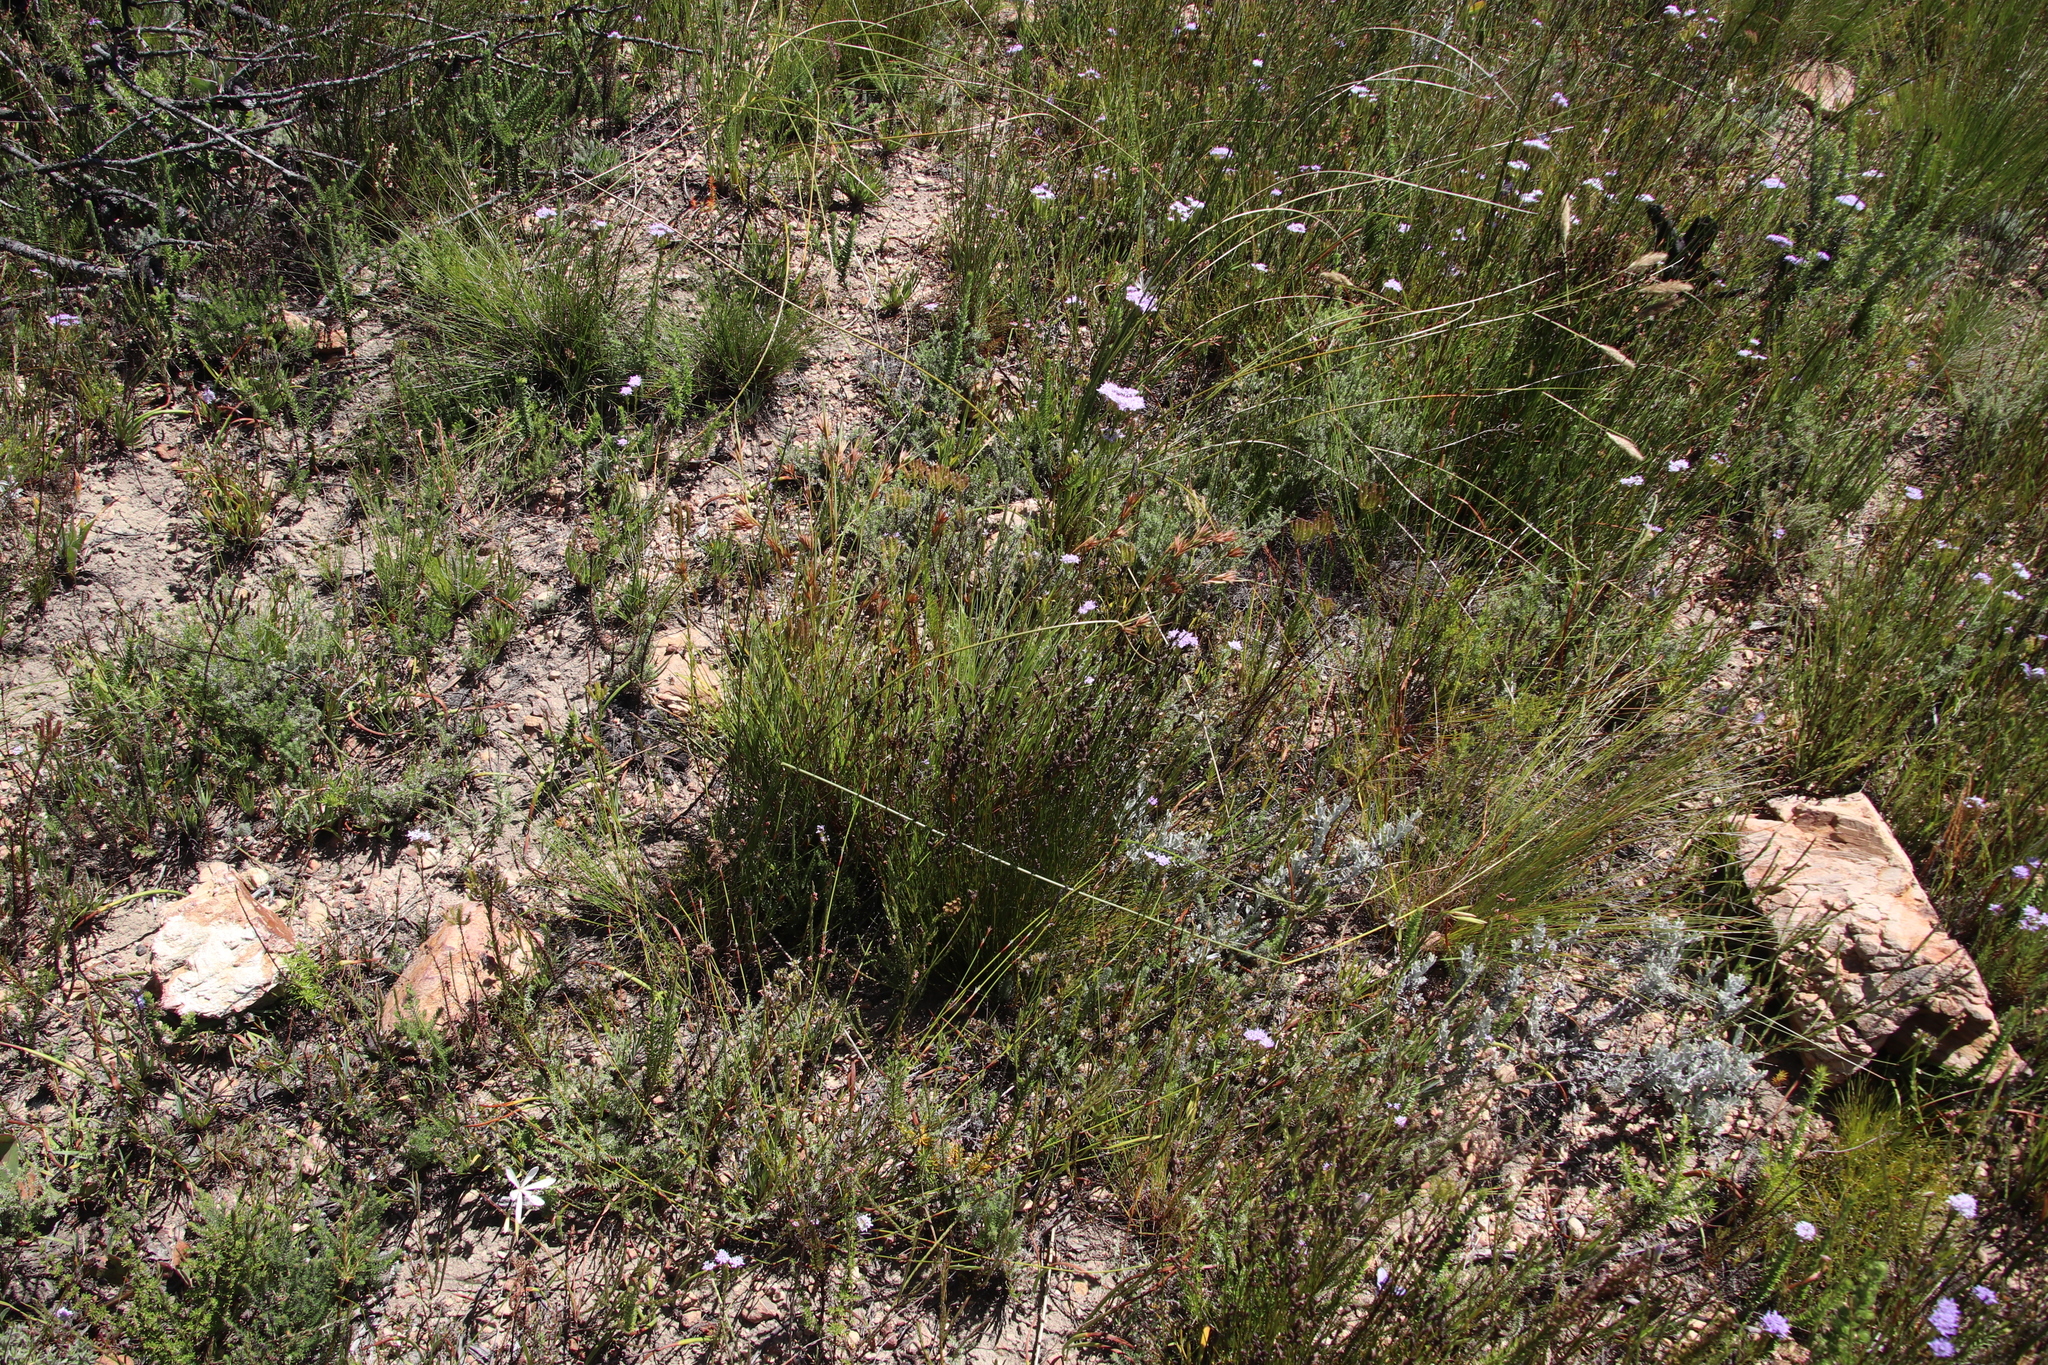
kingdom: Plantae
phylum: Tracheophyta
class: Liliopsida
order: Poales
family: Poaceae
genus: Themeda
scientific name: Themeda triandra
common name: Kangaroo grass
